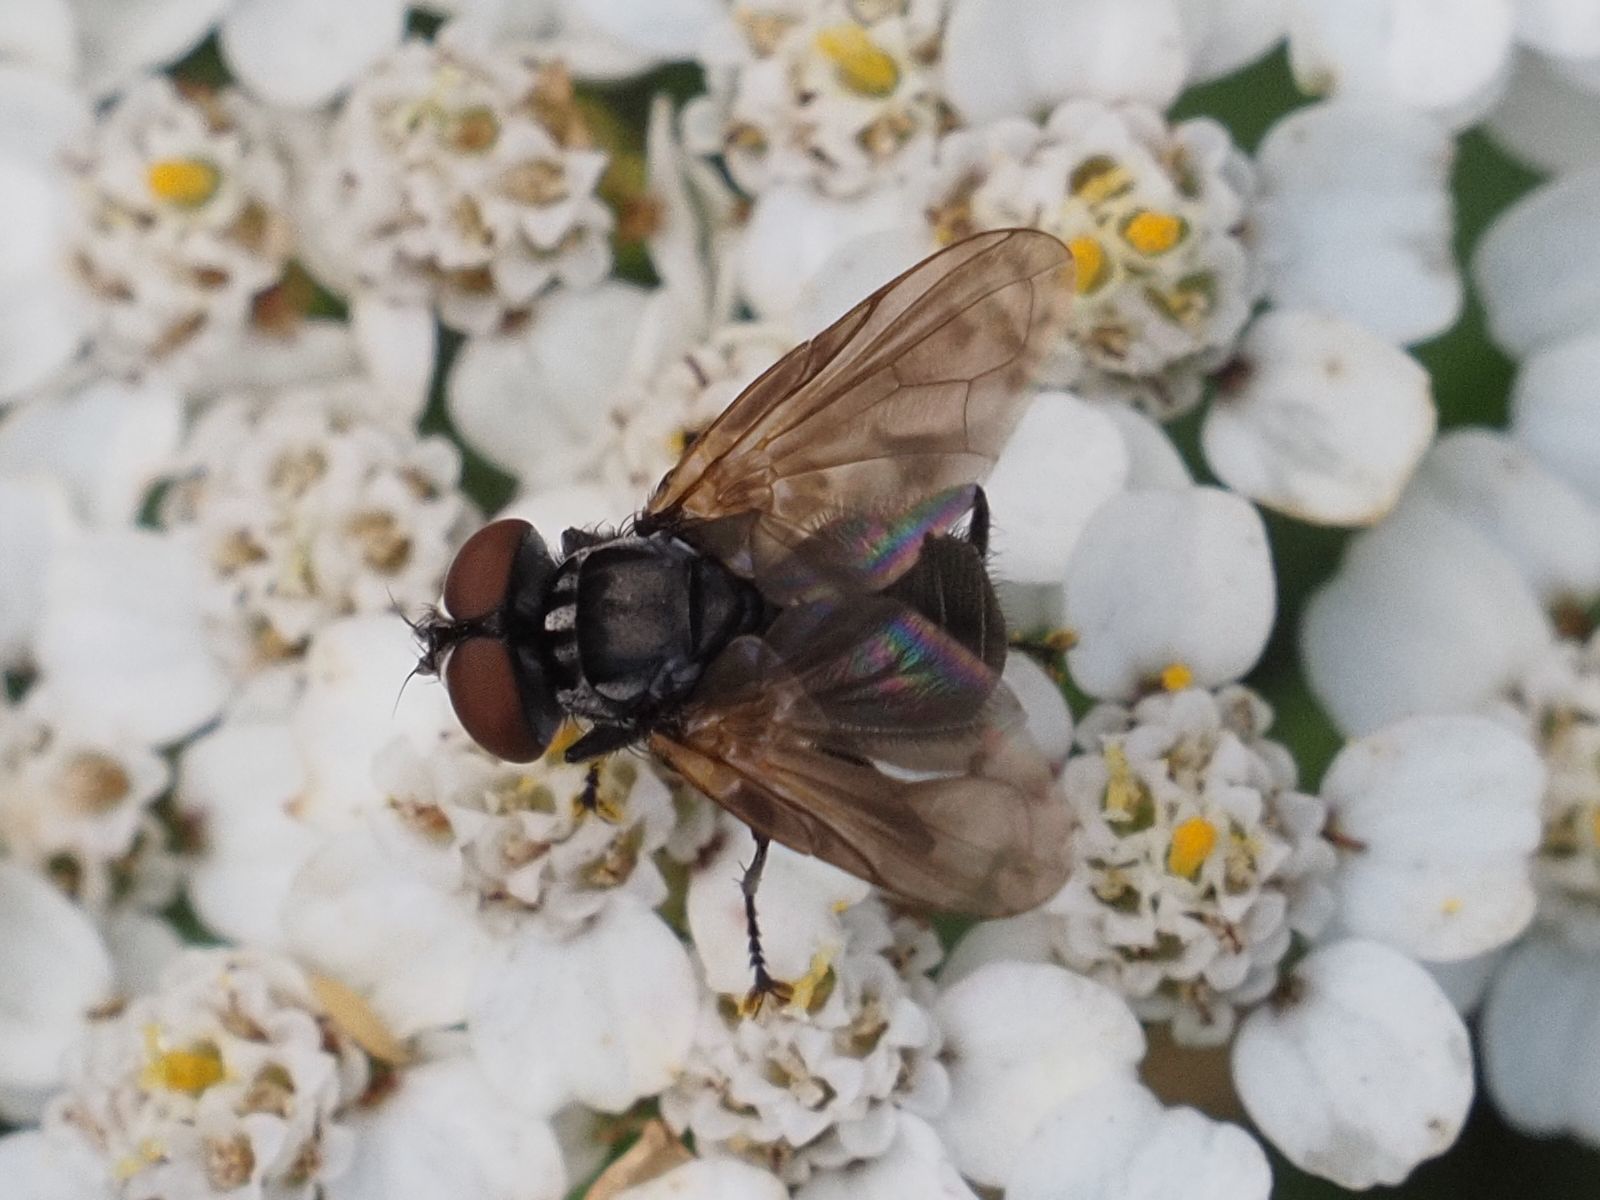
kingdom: Animalia
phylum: Arthropoda
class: Insecta
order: Diptera
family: Tachinidae
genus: Phasia
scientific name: Phasia obesa
